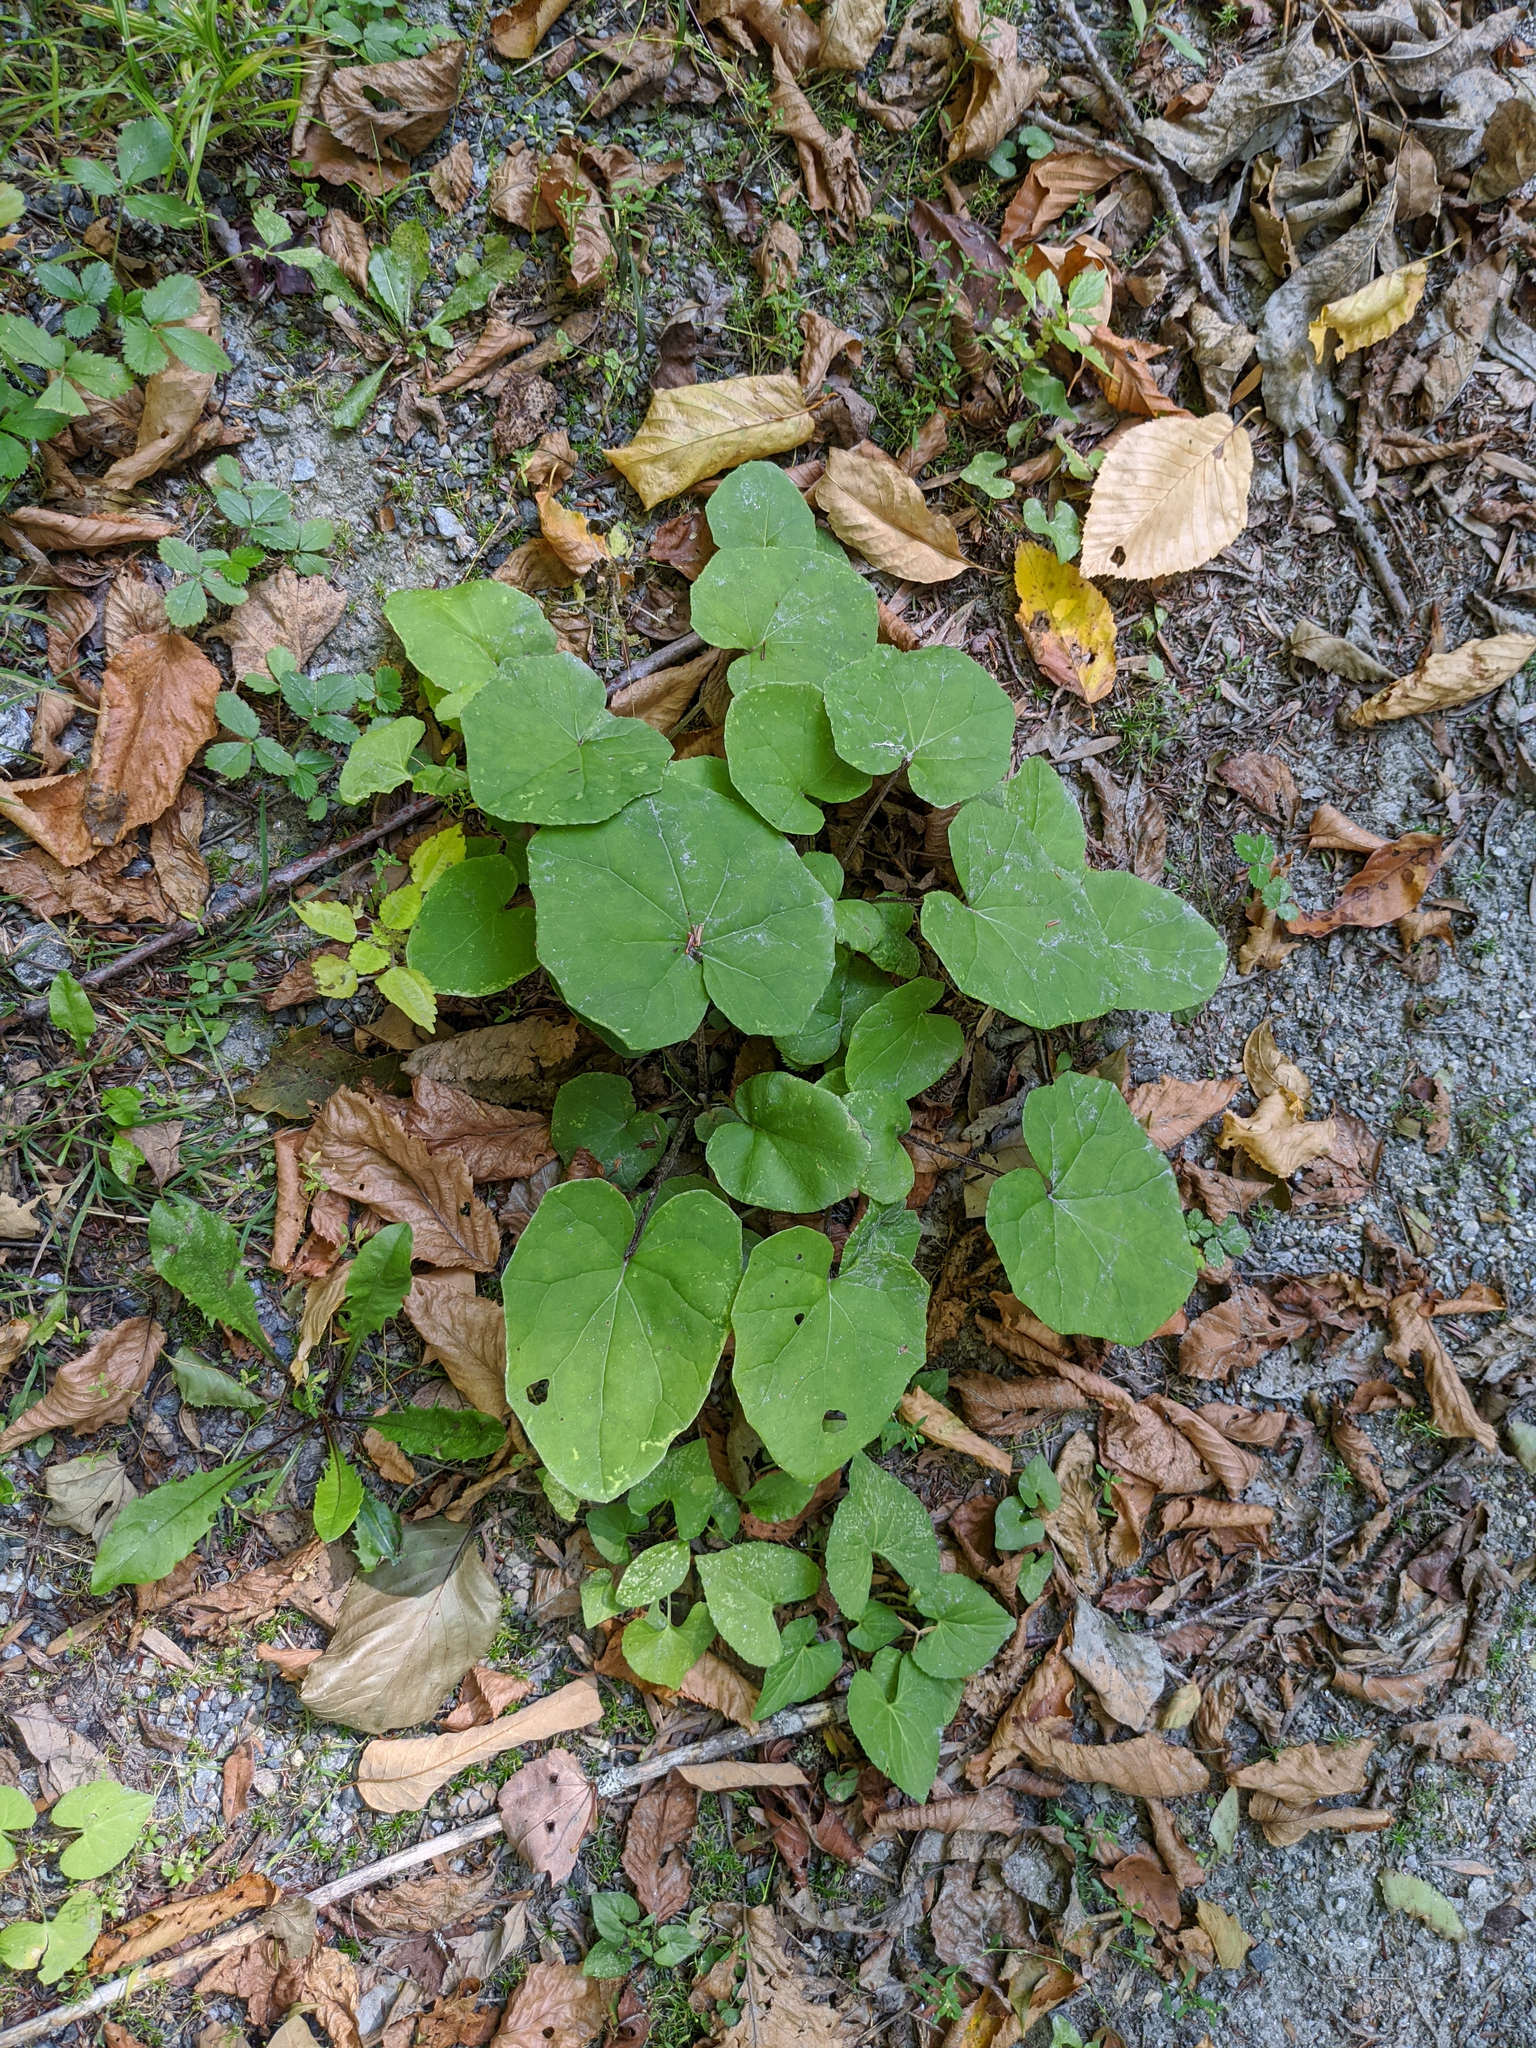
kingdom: Plantae
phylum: Tracheophyta
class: Magnoliopsida
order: Asterales
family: Asteraceae
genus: Tussilago
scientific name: Tussilago farfara
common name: Coltsfoot
